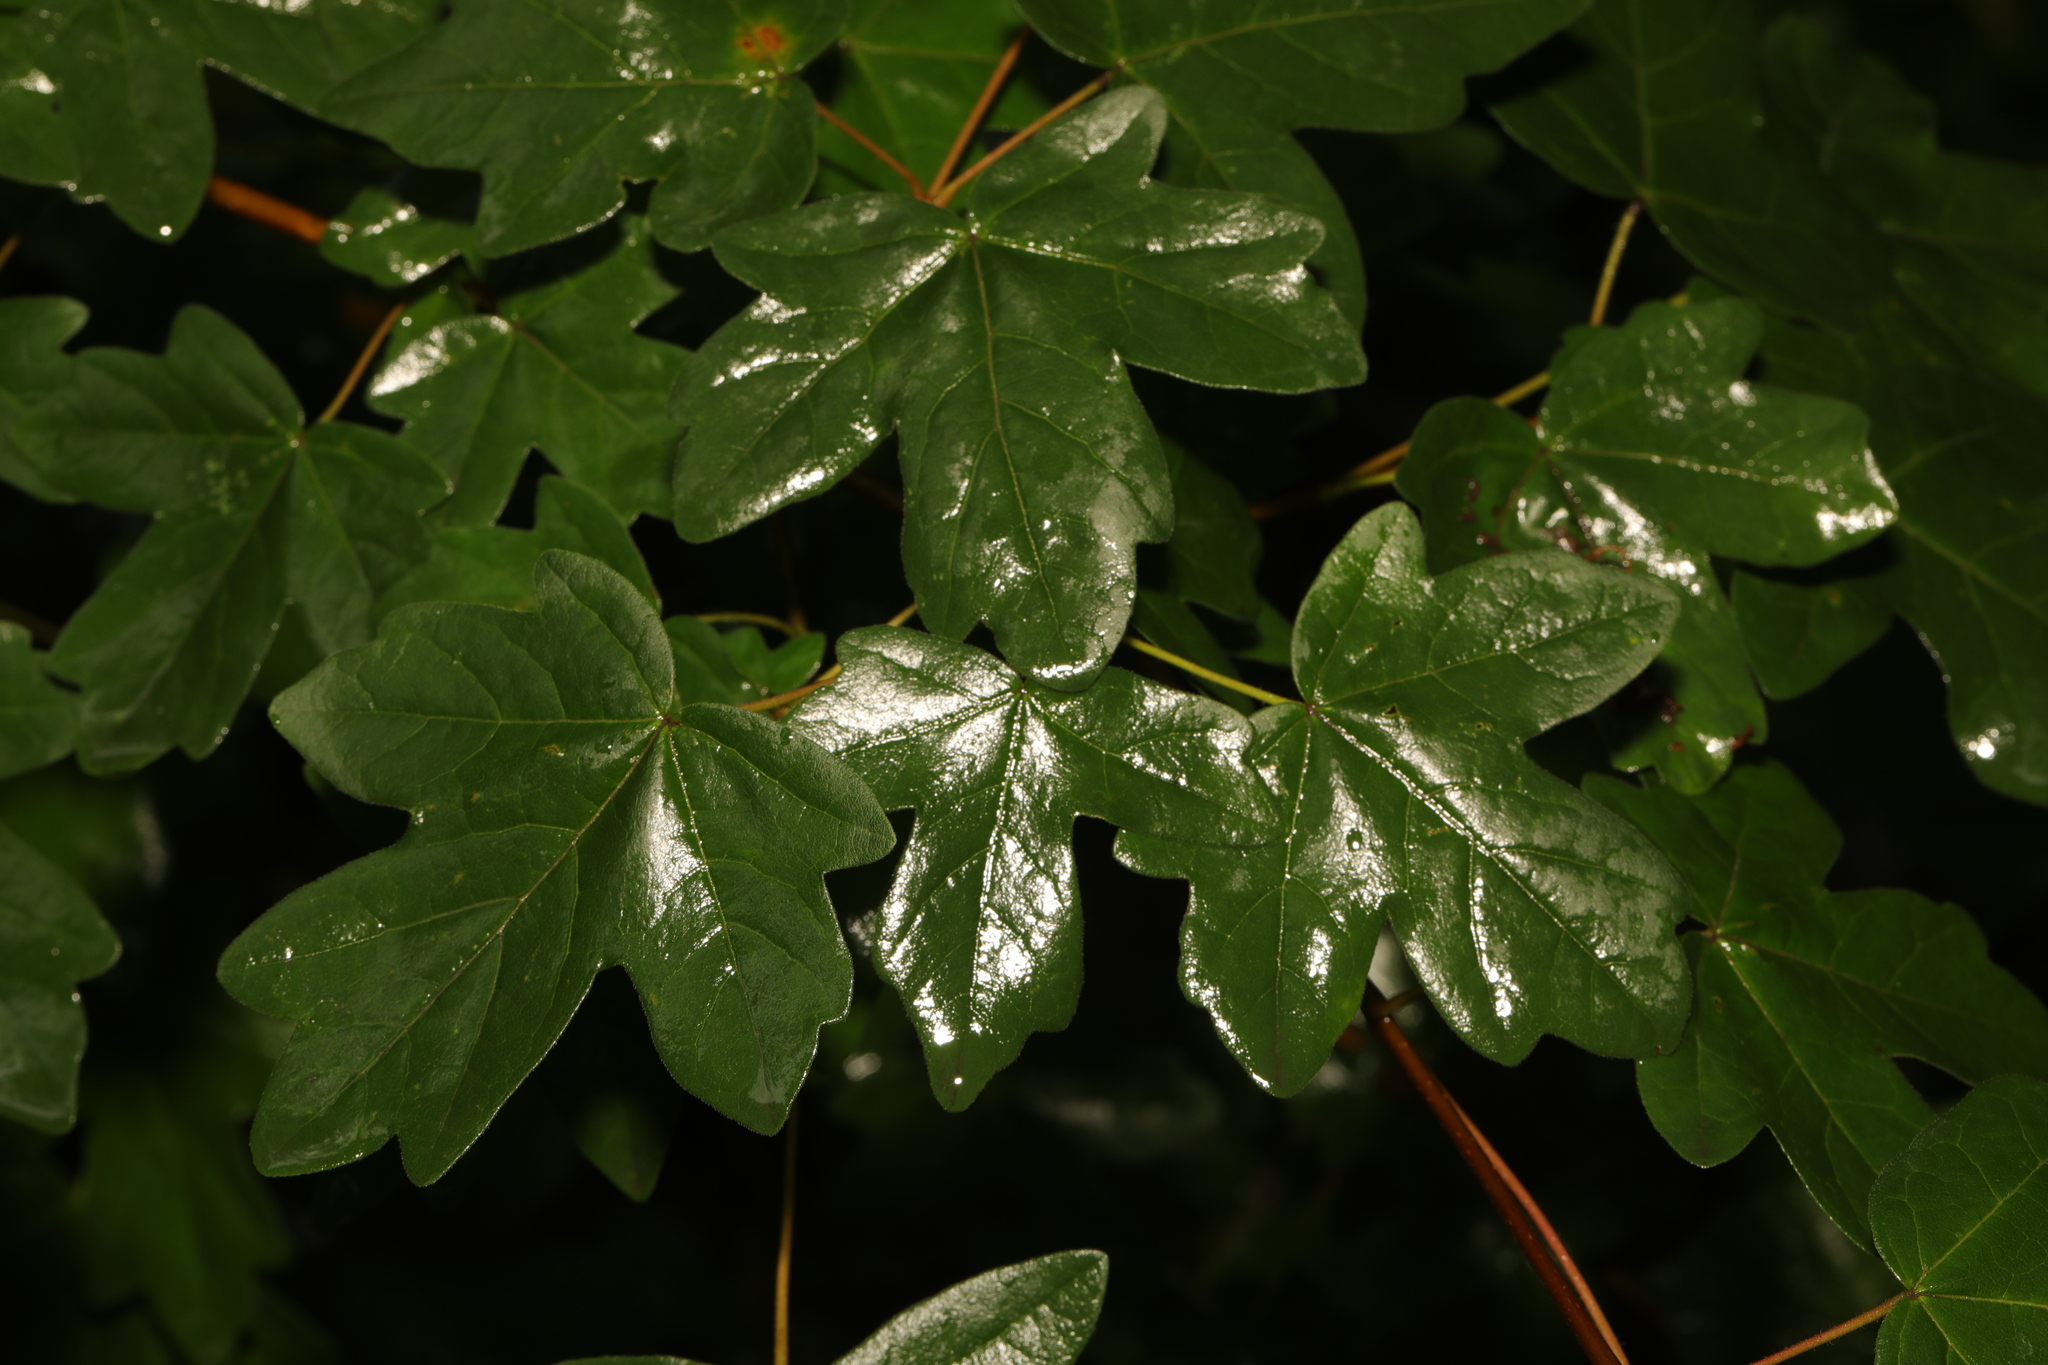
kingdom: Plantae
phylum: Tracheophyta
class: Magnoliopsida
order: Sapindales
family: Sapindaceae
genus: Acer
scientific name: Acer campestre
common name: Field maple
